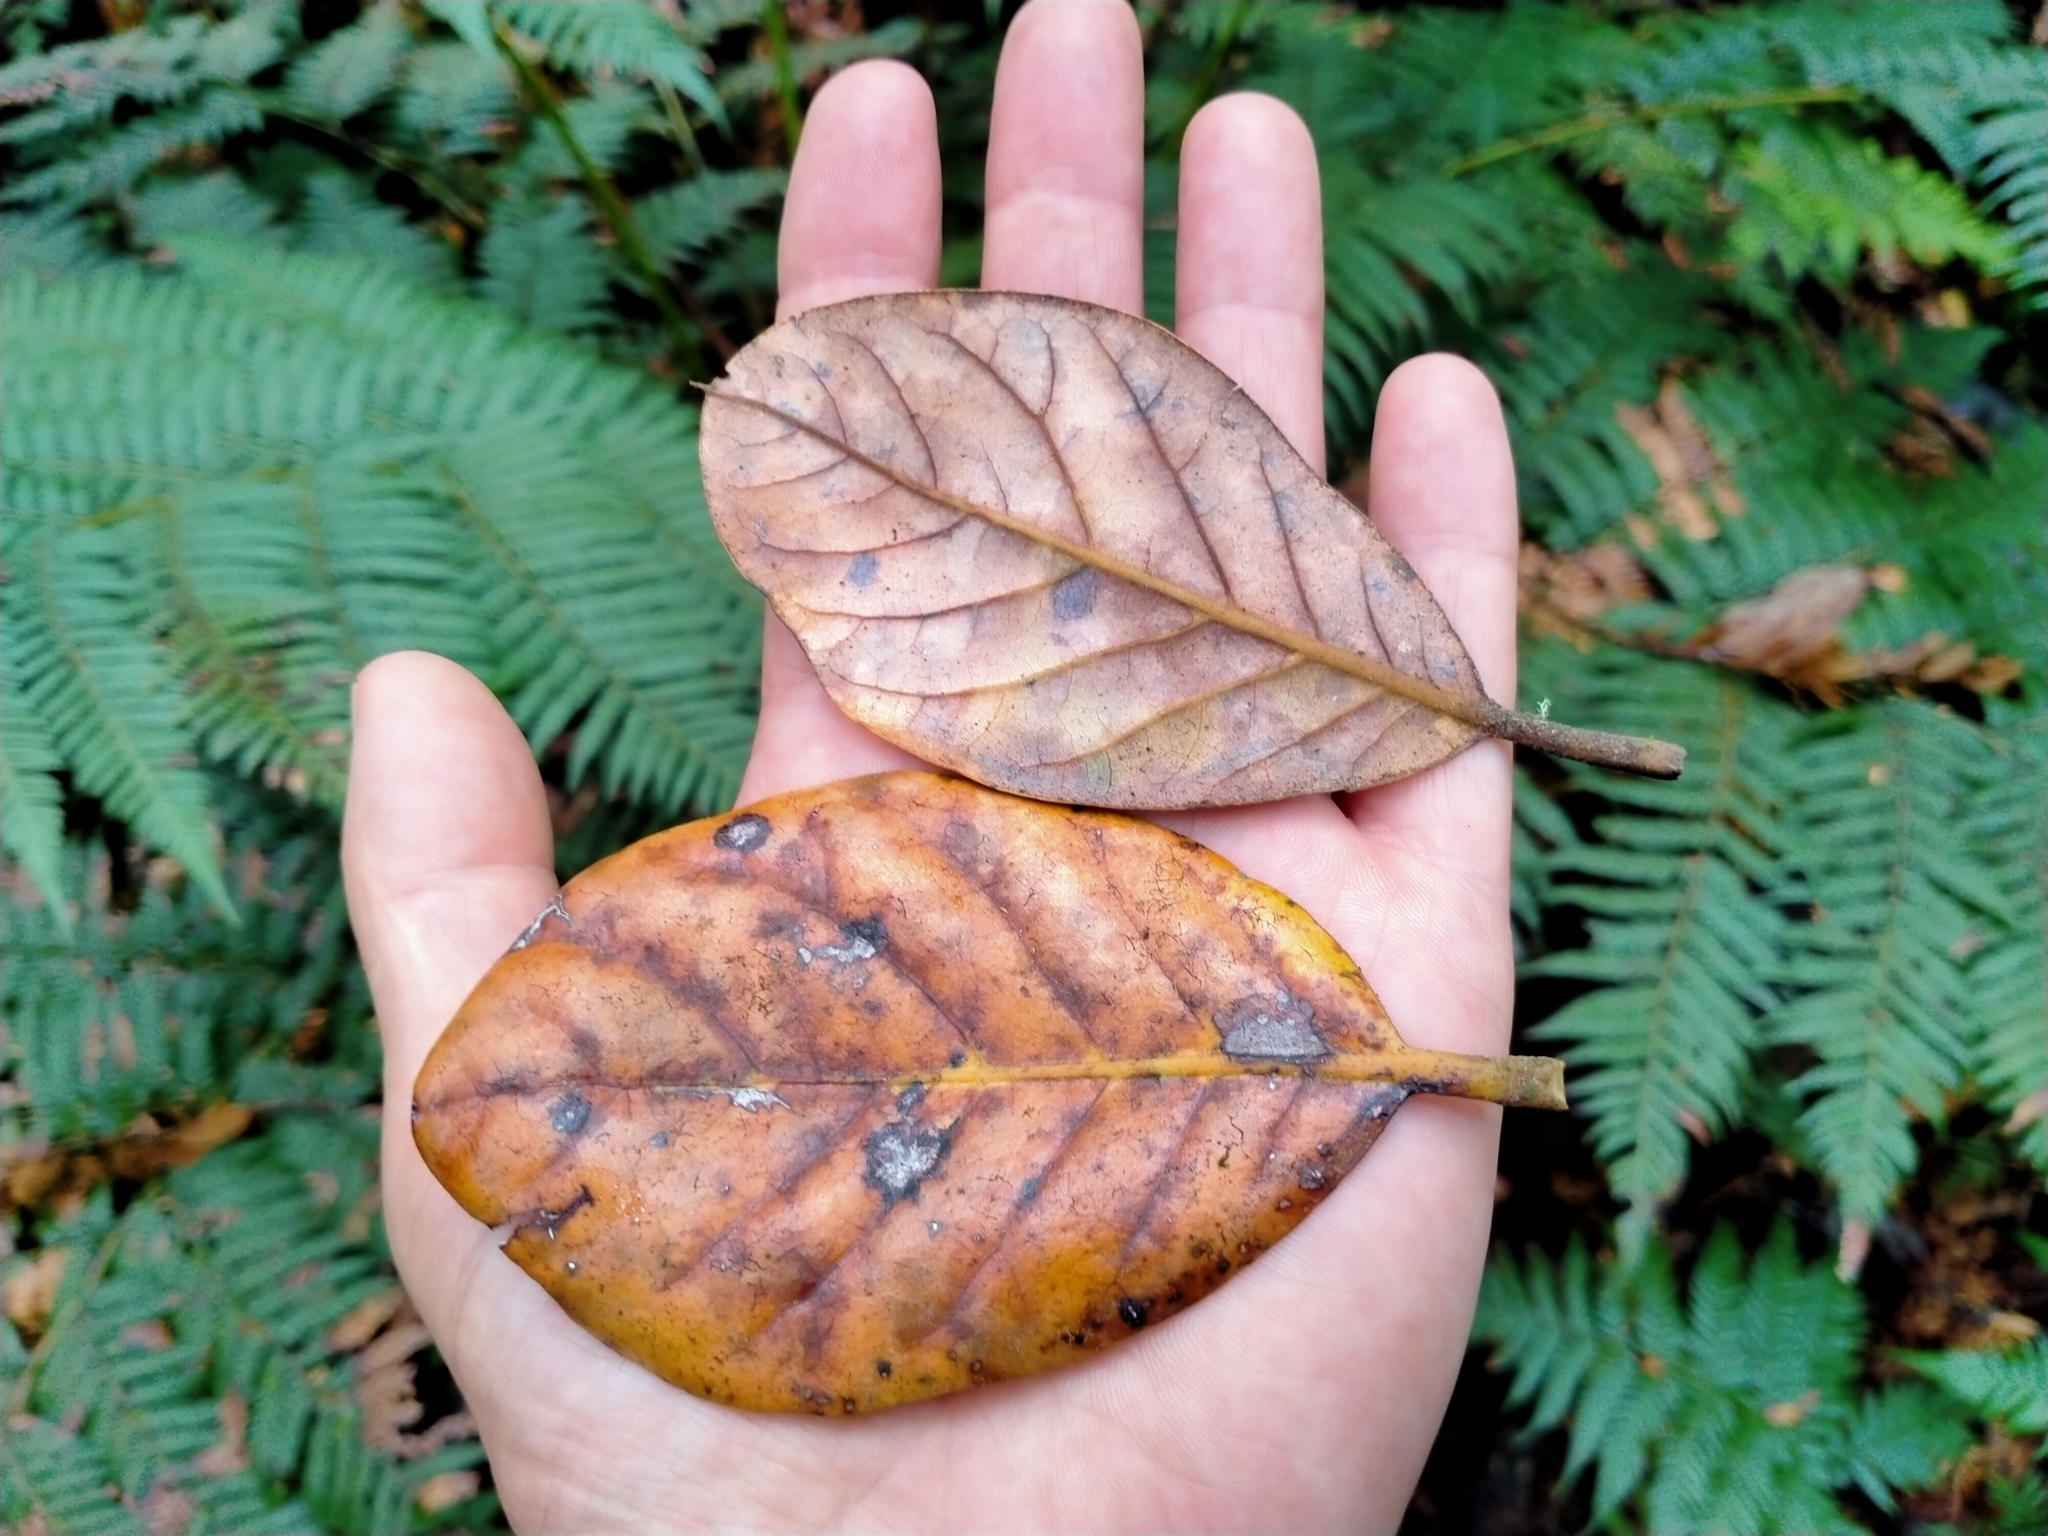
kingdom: Plantae
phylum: Tracheophyta
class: Magnoliopsida
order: Laurales
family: Lauraceae
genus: Beilschmiedia
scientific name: Beilschmiedia tarairi
